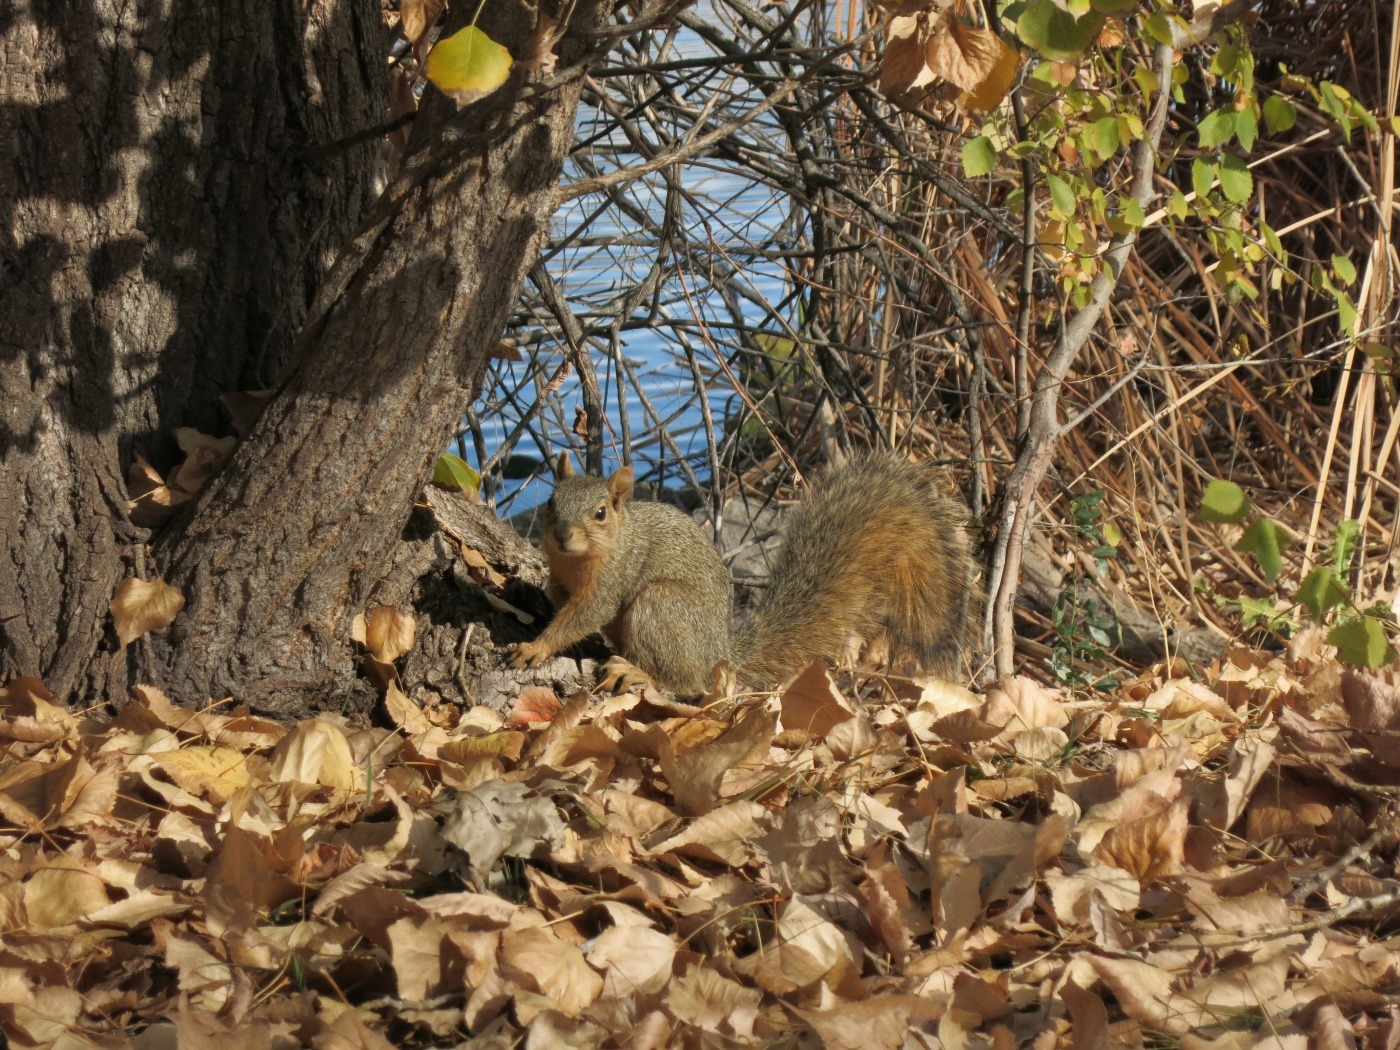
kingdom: Animalia
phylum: Chordata
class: Mammalia
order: Rodentia
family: Sciuridae
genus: Sciurus
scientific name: Sciurus niger
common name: Fox squirrel
